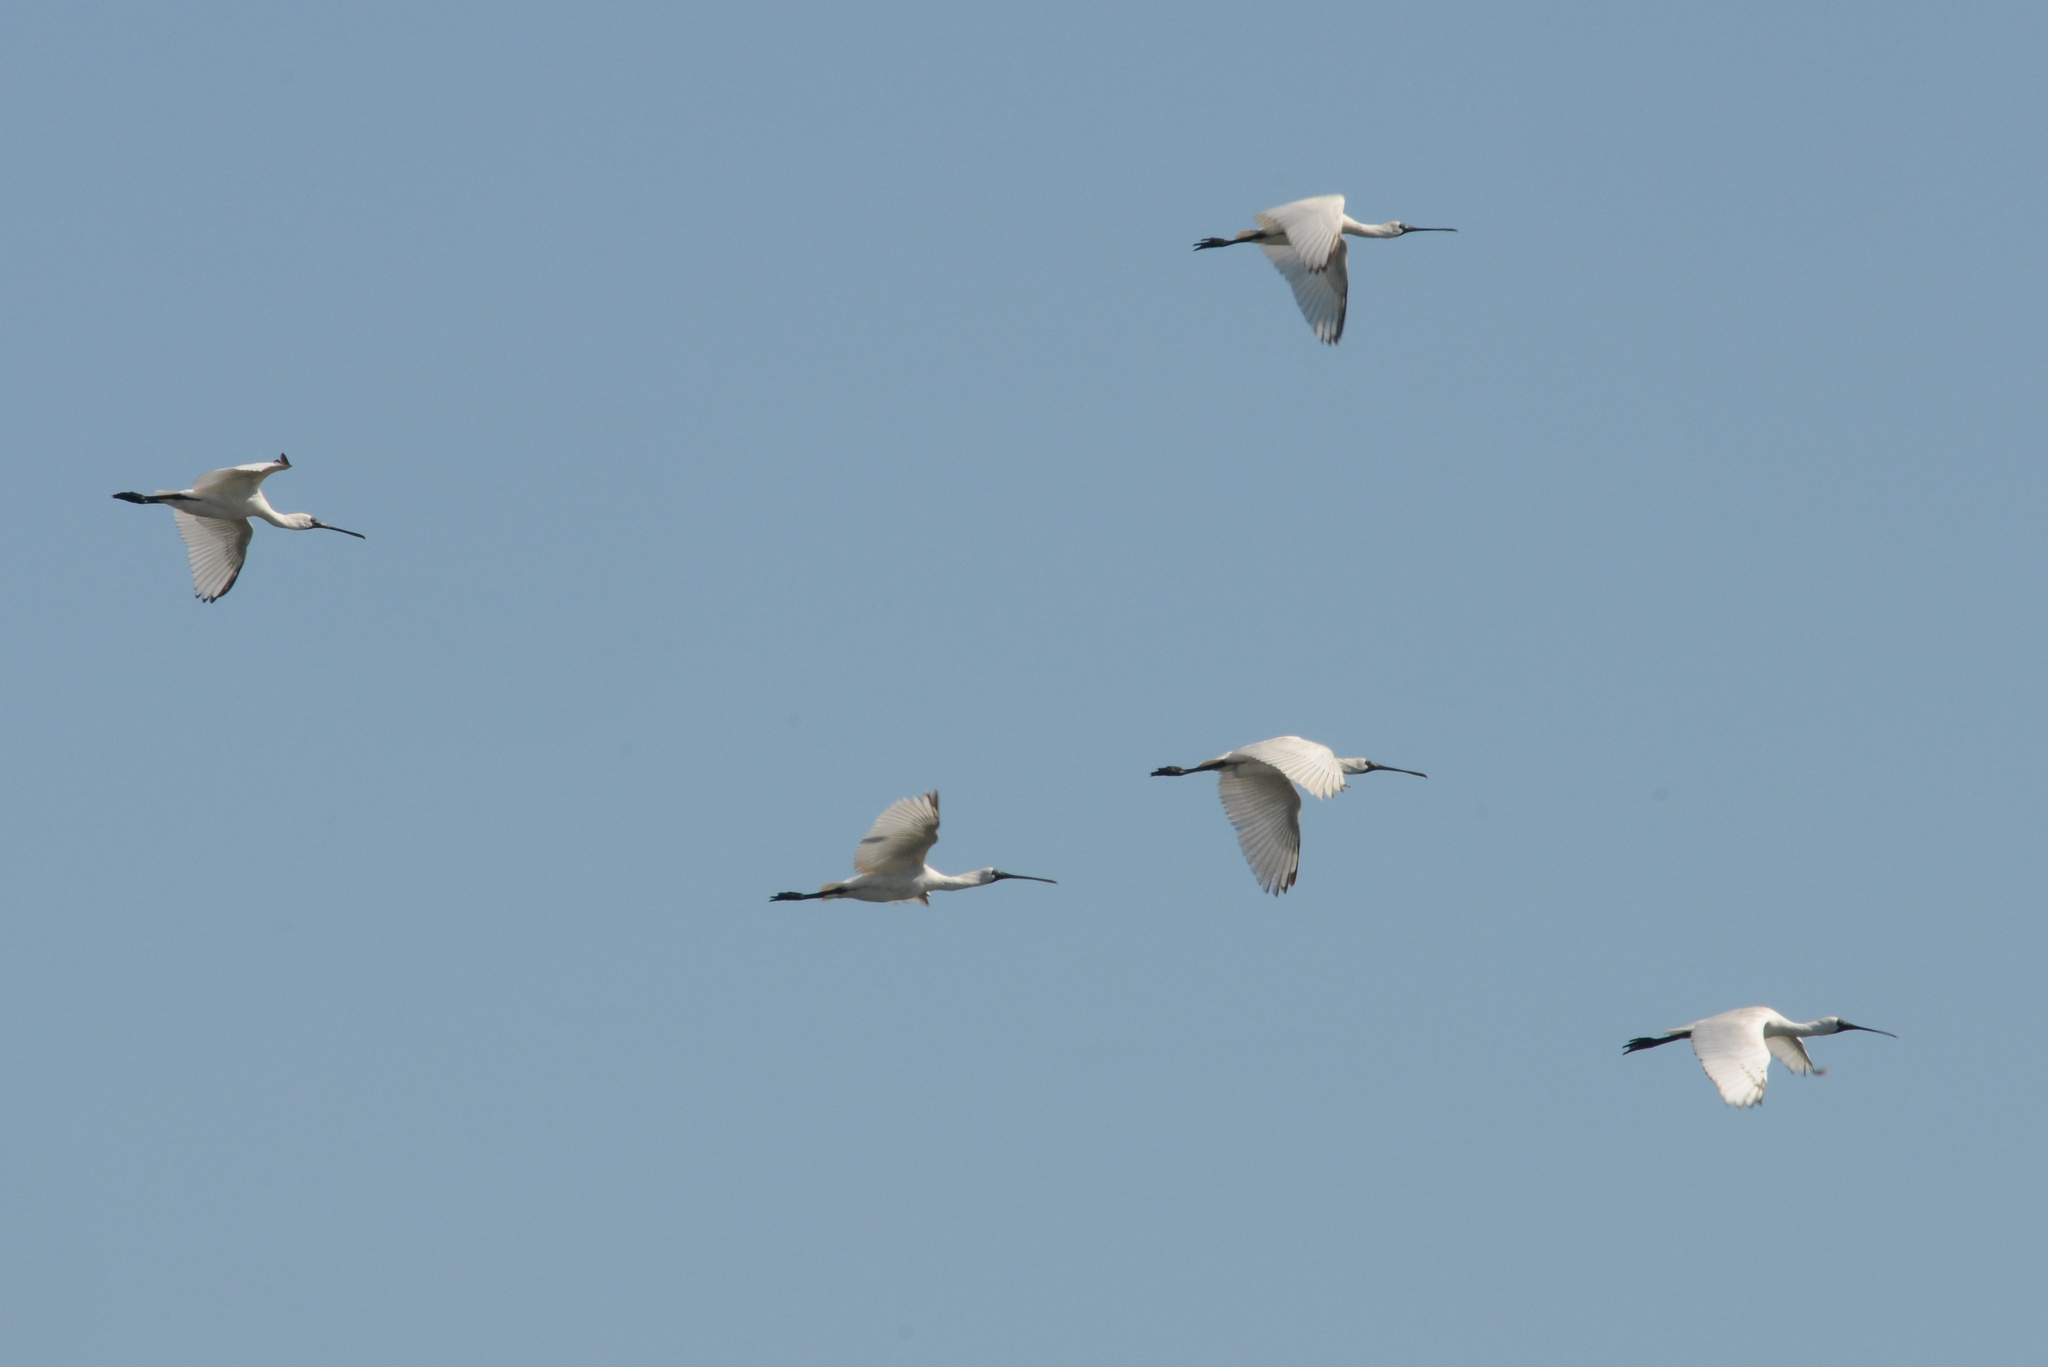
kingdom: Animalia
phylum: Chordata
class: Aves
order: Pelecaniformes
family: Threskiornithidae
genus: Platalea
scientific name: Platalea regia
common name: Royal spoonbill
